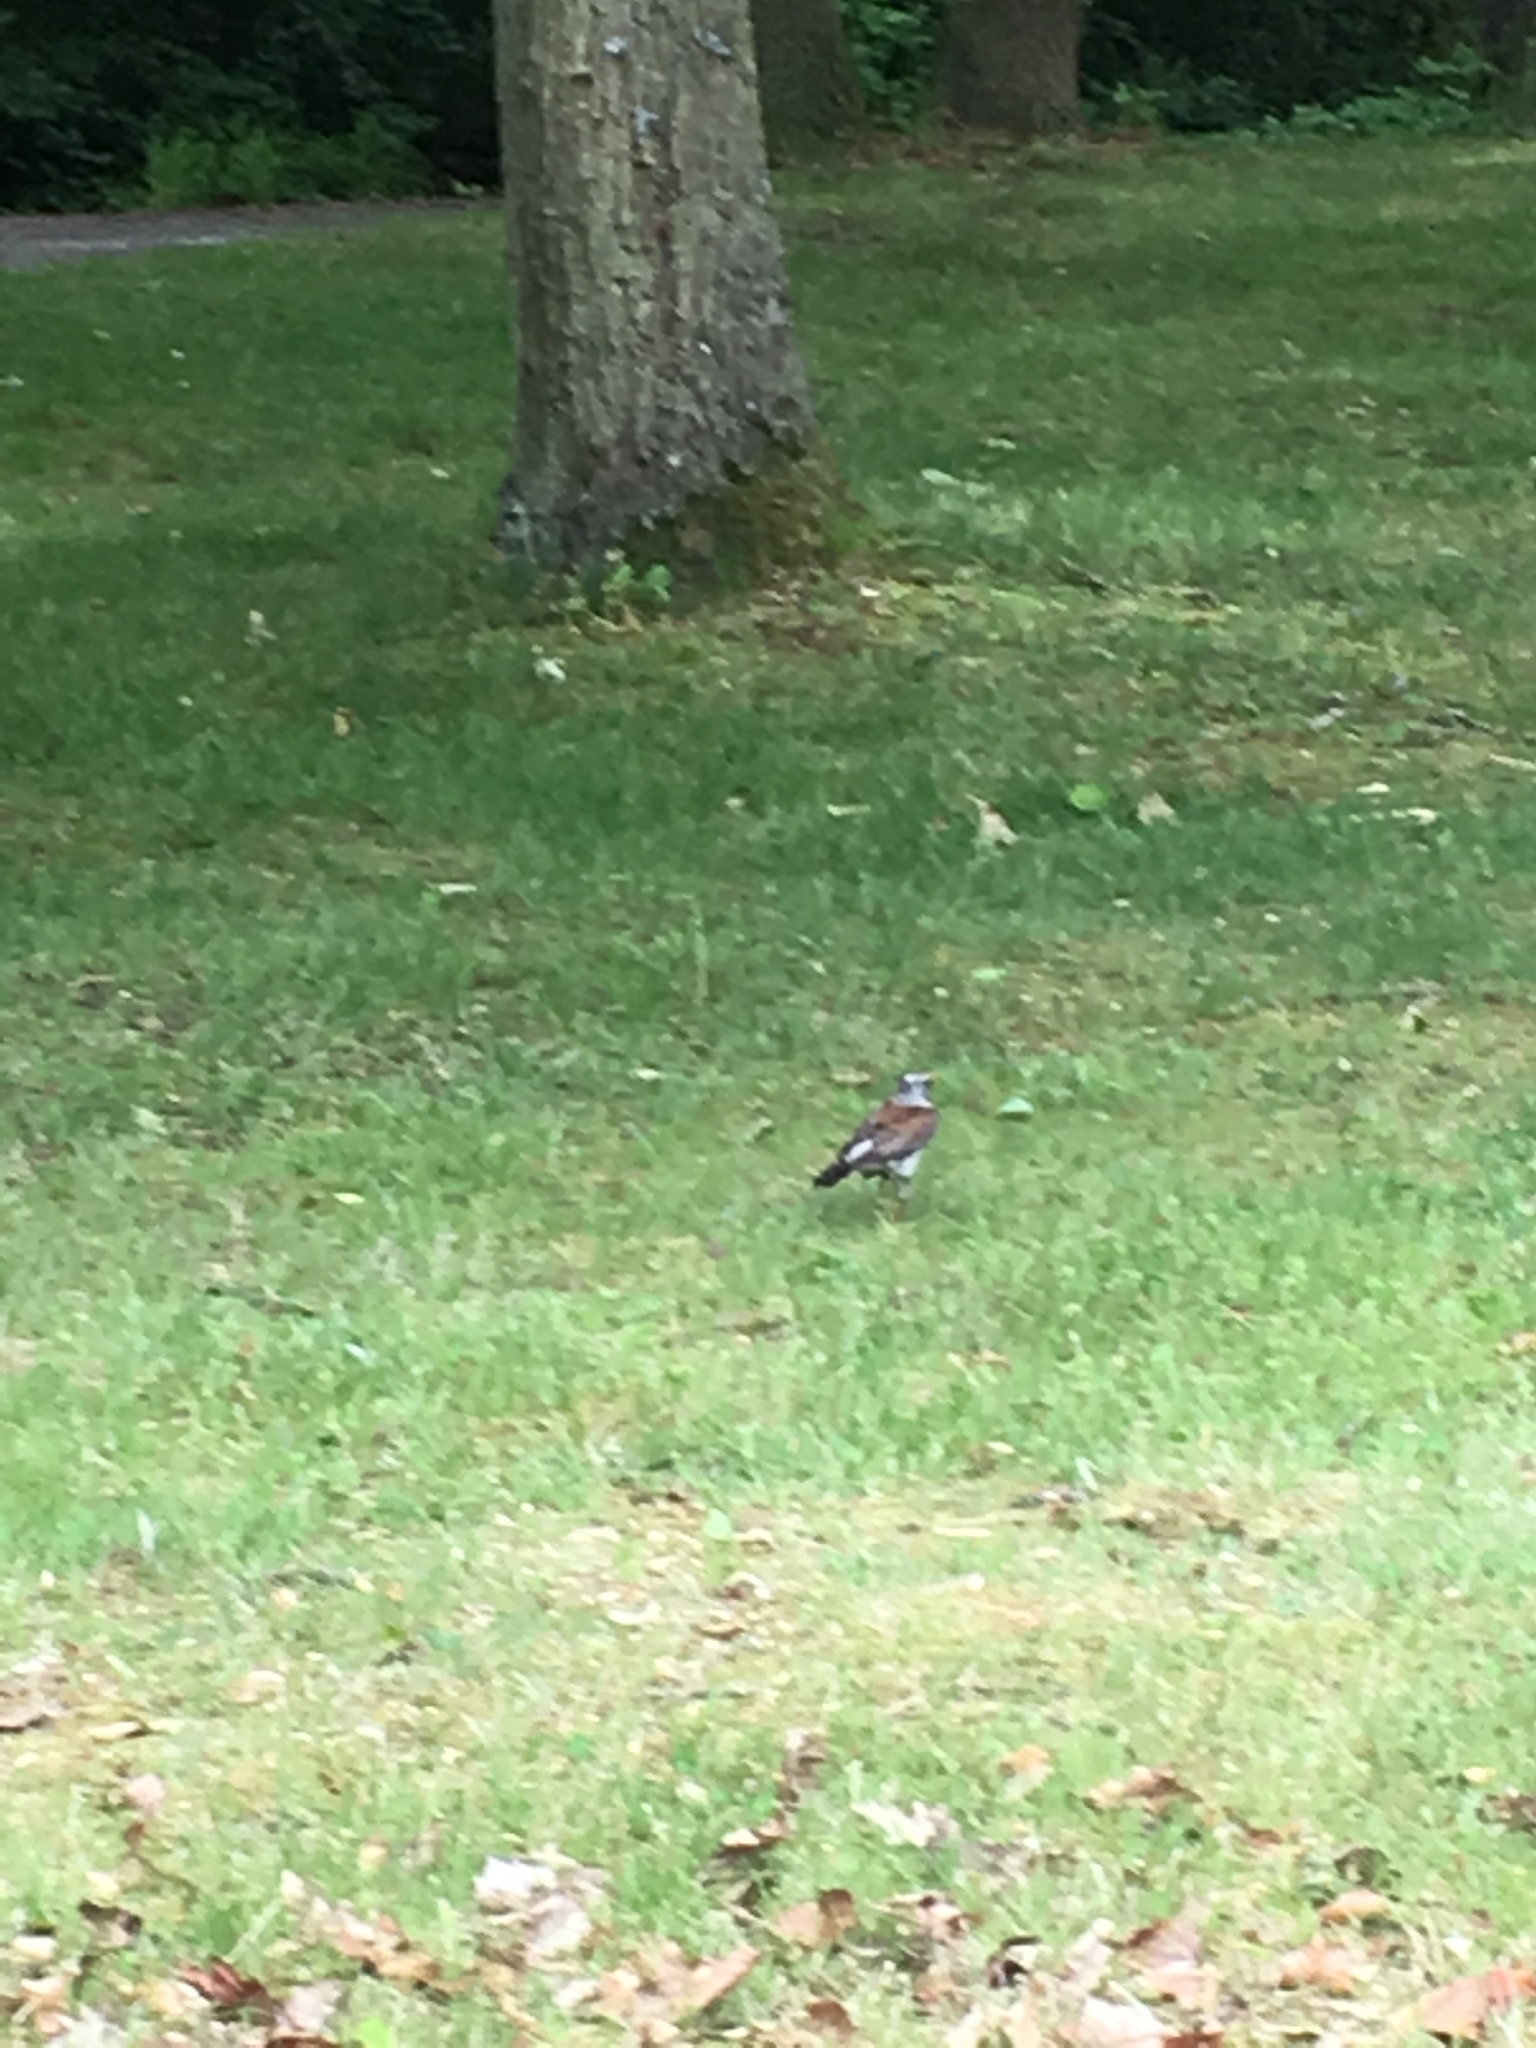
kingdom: Animalia
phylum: Chordata
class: Aves
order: Passeriformes
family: Turdidae
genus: Turdus
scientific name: Turdus pilaris
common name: Fieldfare
